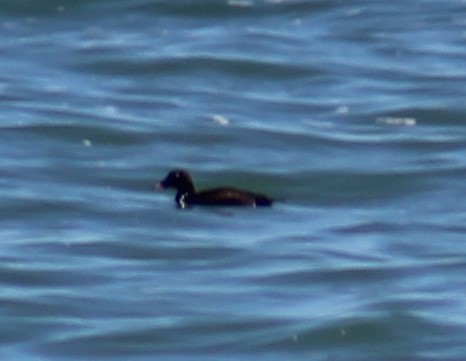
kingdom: Animalia
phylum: Chordata
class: Aves
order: Anseriformes
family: Anatidae
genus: Melanitta
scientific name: Melanitta deglandi
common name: White-winged scoter
